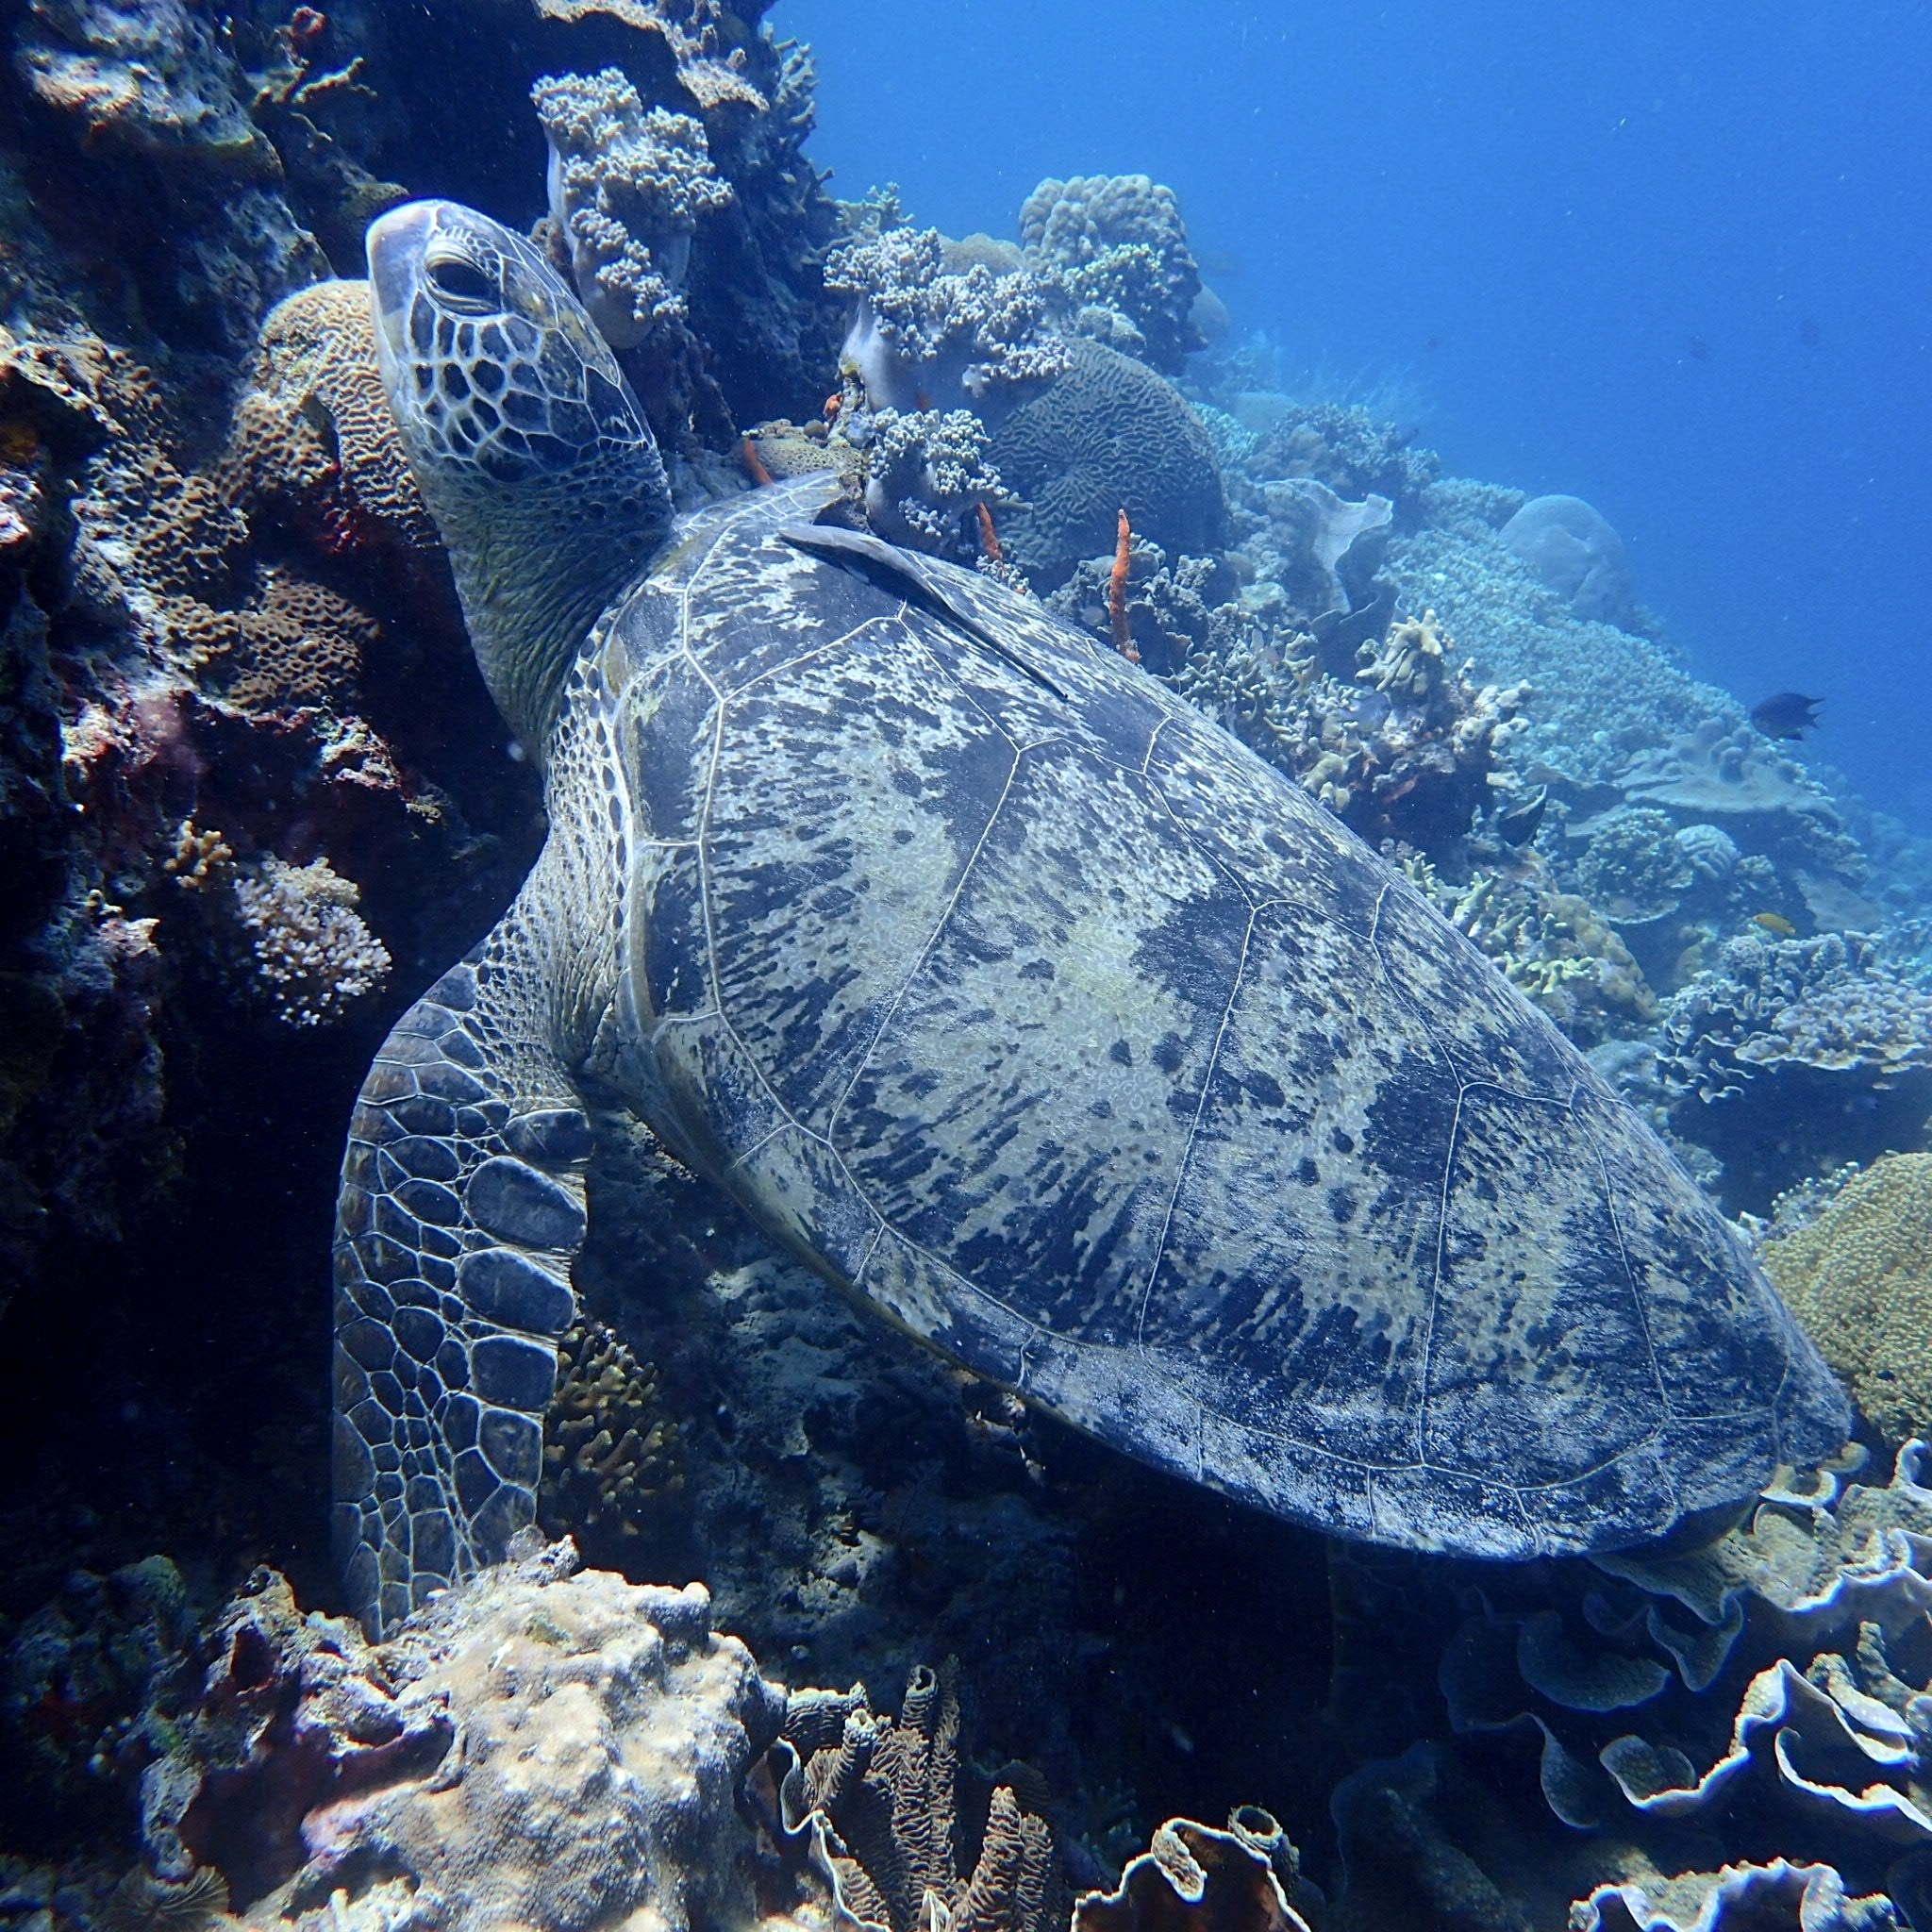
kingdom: Animalia
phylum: Chordata
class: Testudines
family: Cheloniidae
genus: Chelonia
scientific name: Chelonia mydas
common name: Green turtle
